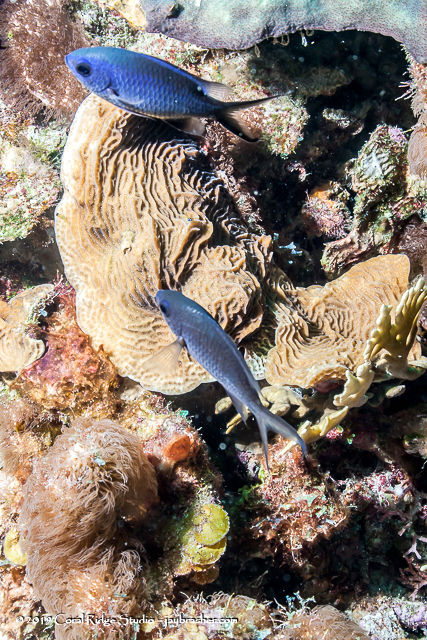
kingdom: Animalia
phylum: Chordata
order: Perciformes
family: Pomacentridae
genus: Chromis
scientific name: Chromis cyanea
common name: Blue chromis
